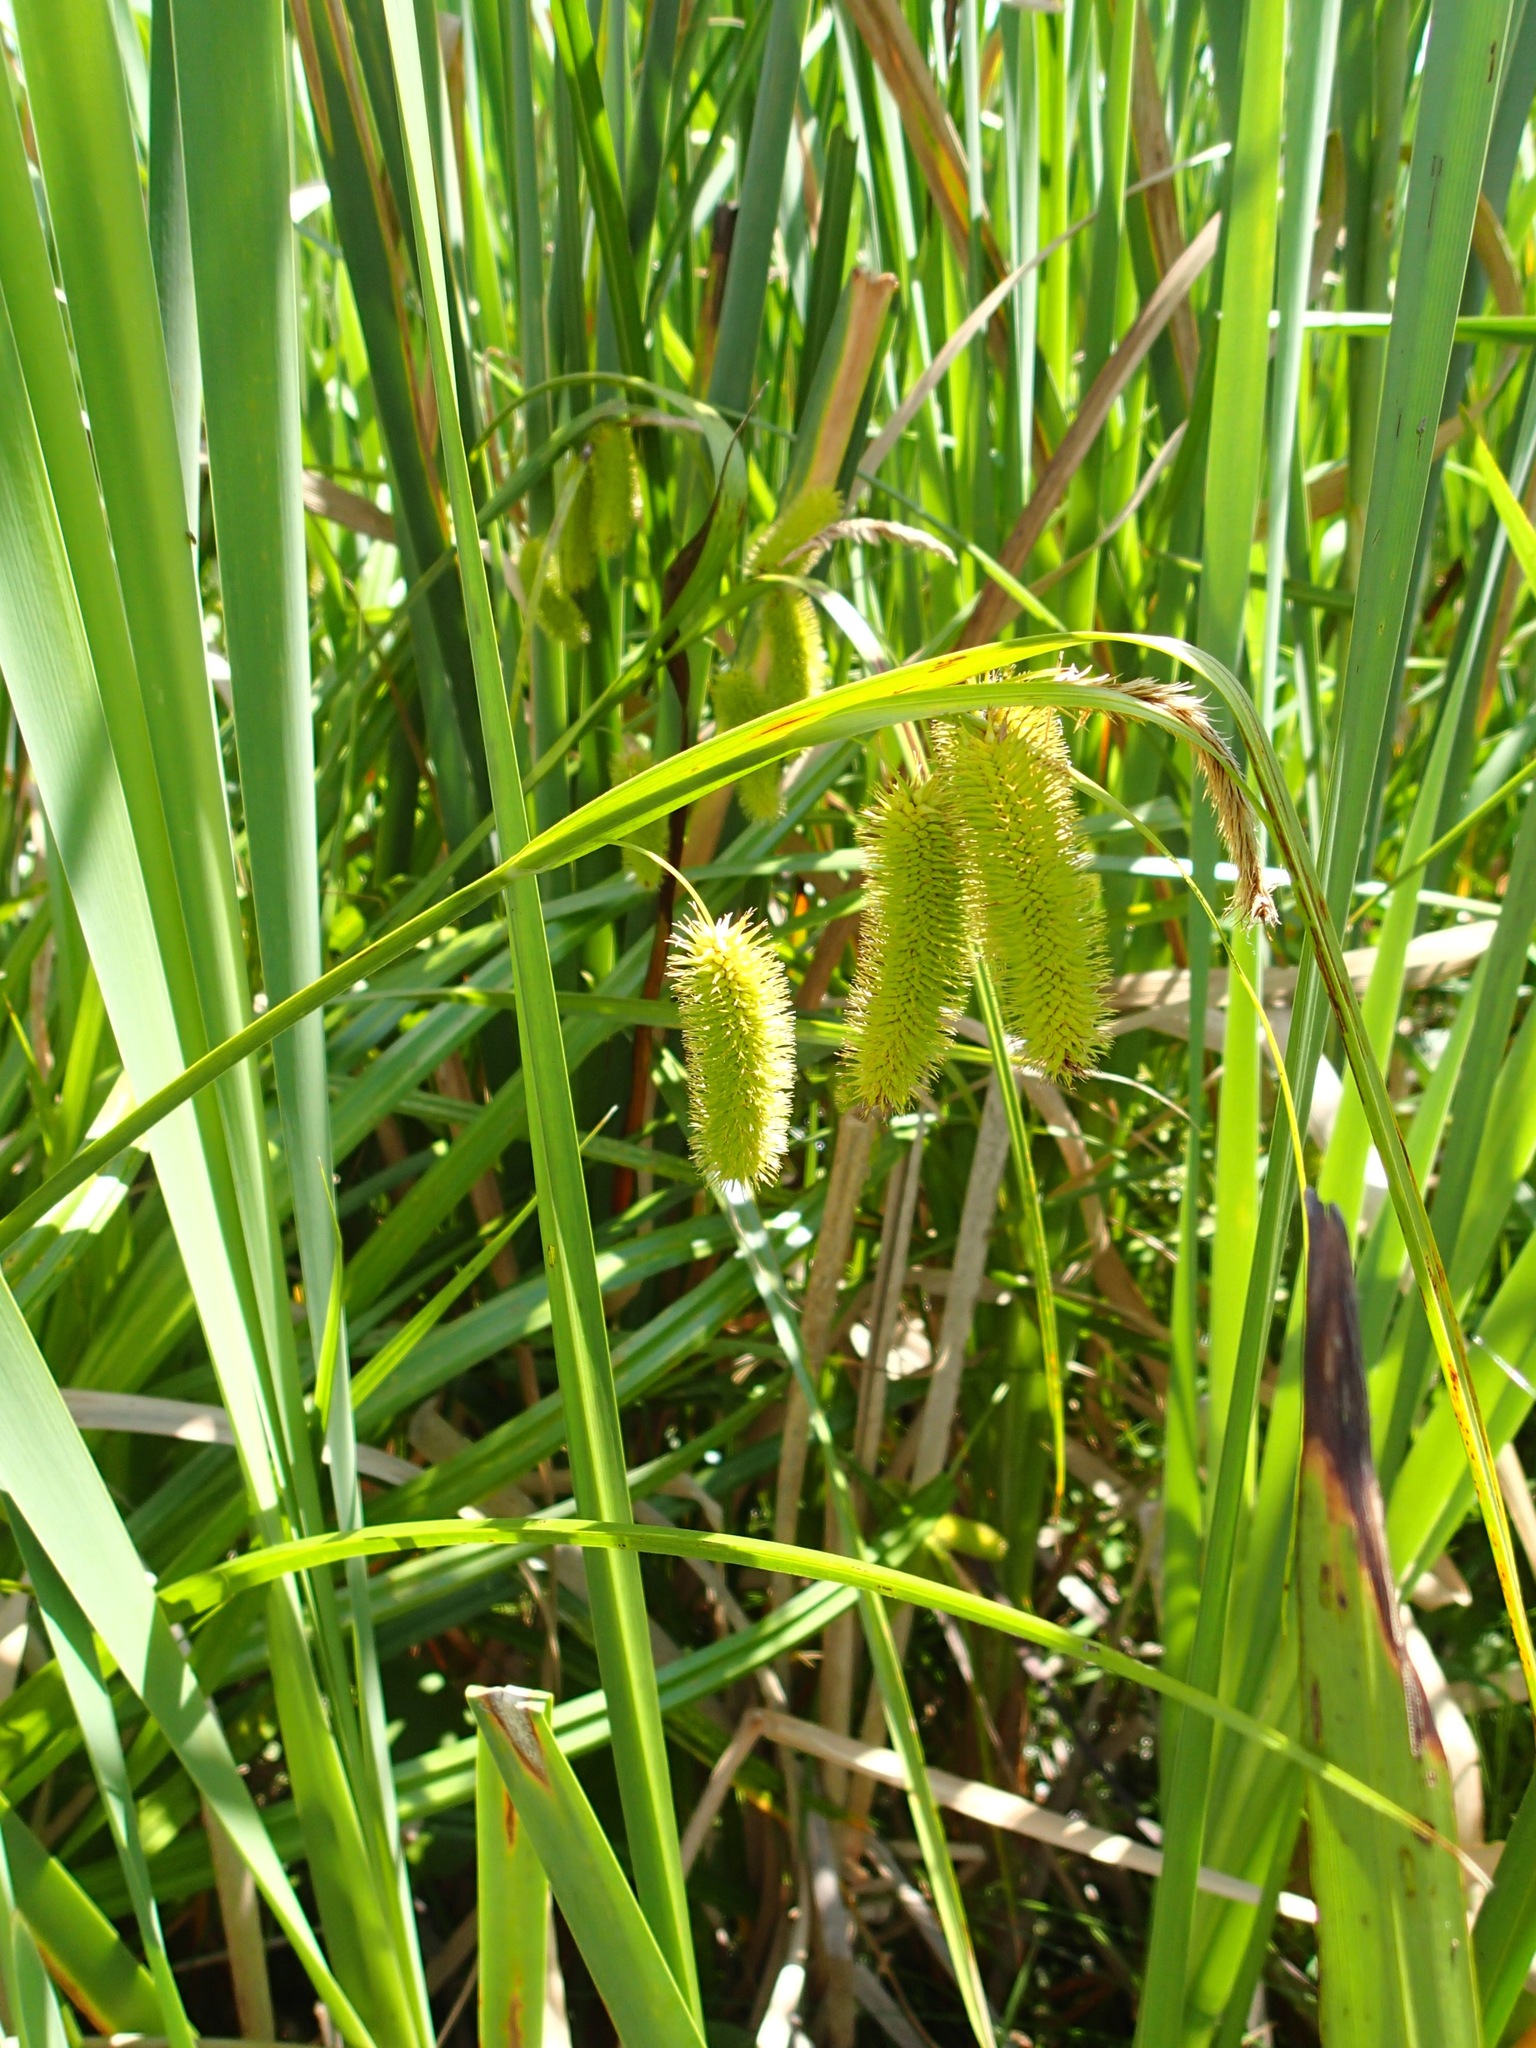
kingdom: Plantae
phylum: Tracheophyta
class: Liliopsida
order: Poales
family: Cyperaceae
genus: Carex
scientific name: Carex comosa
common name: Bristly sedge
